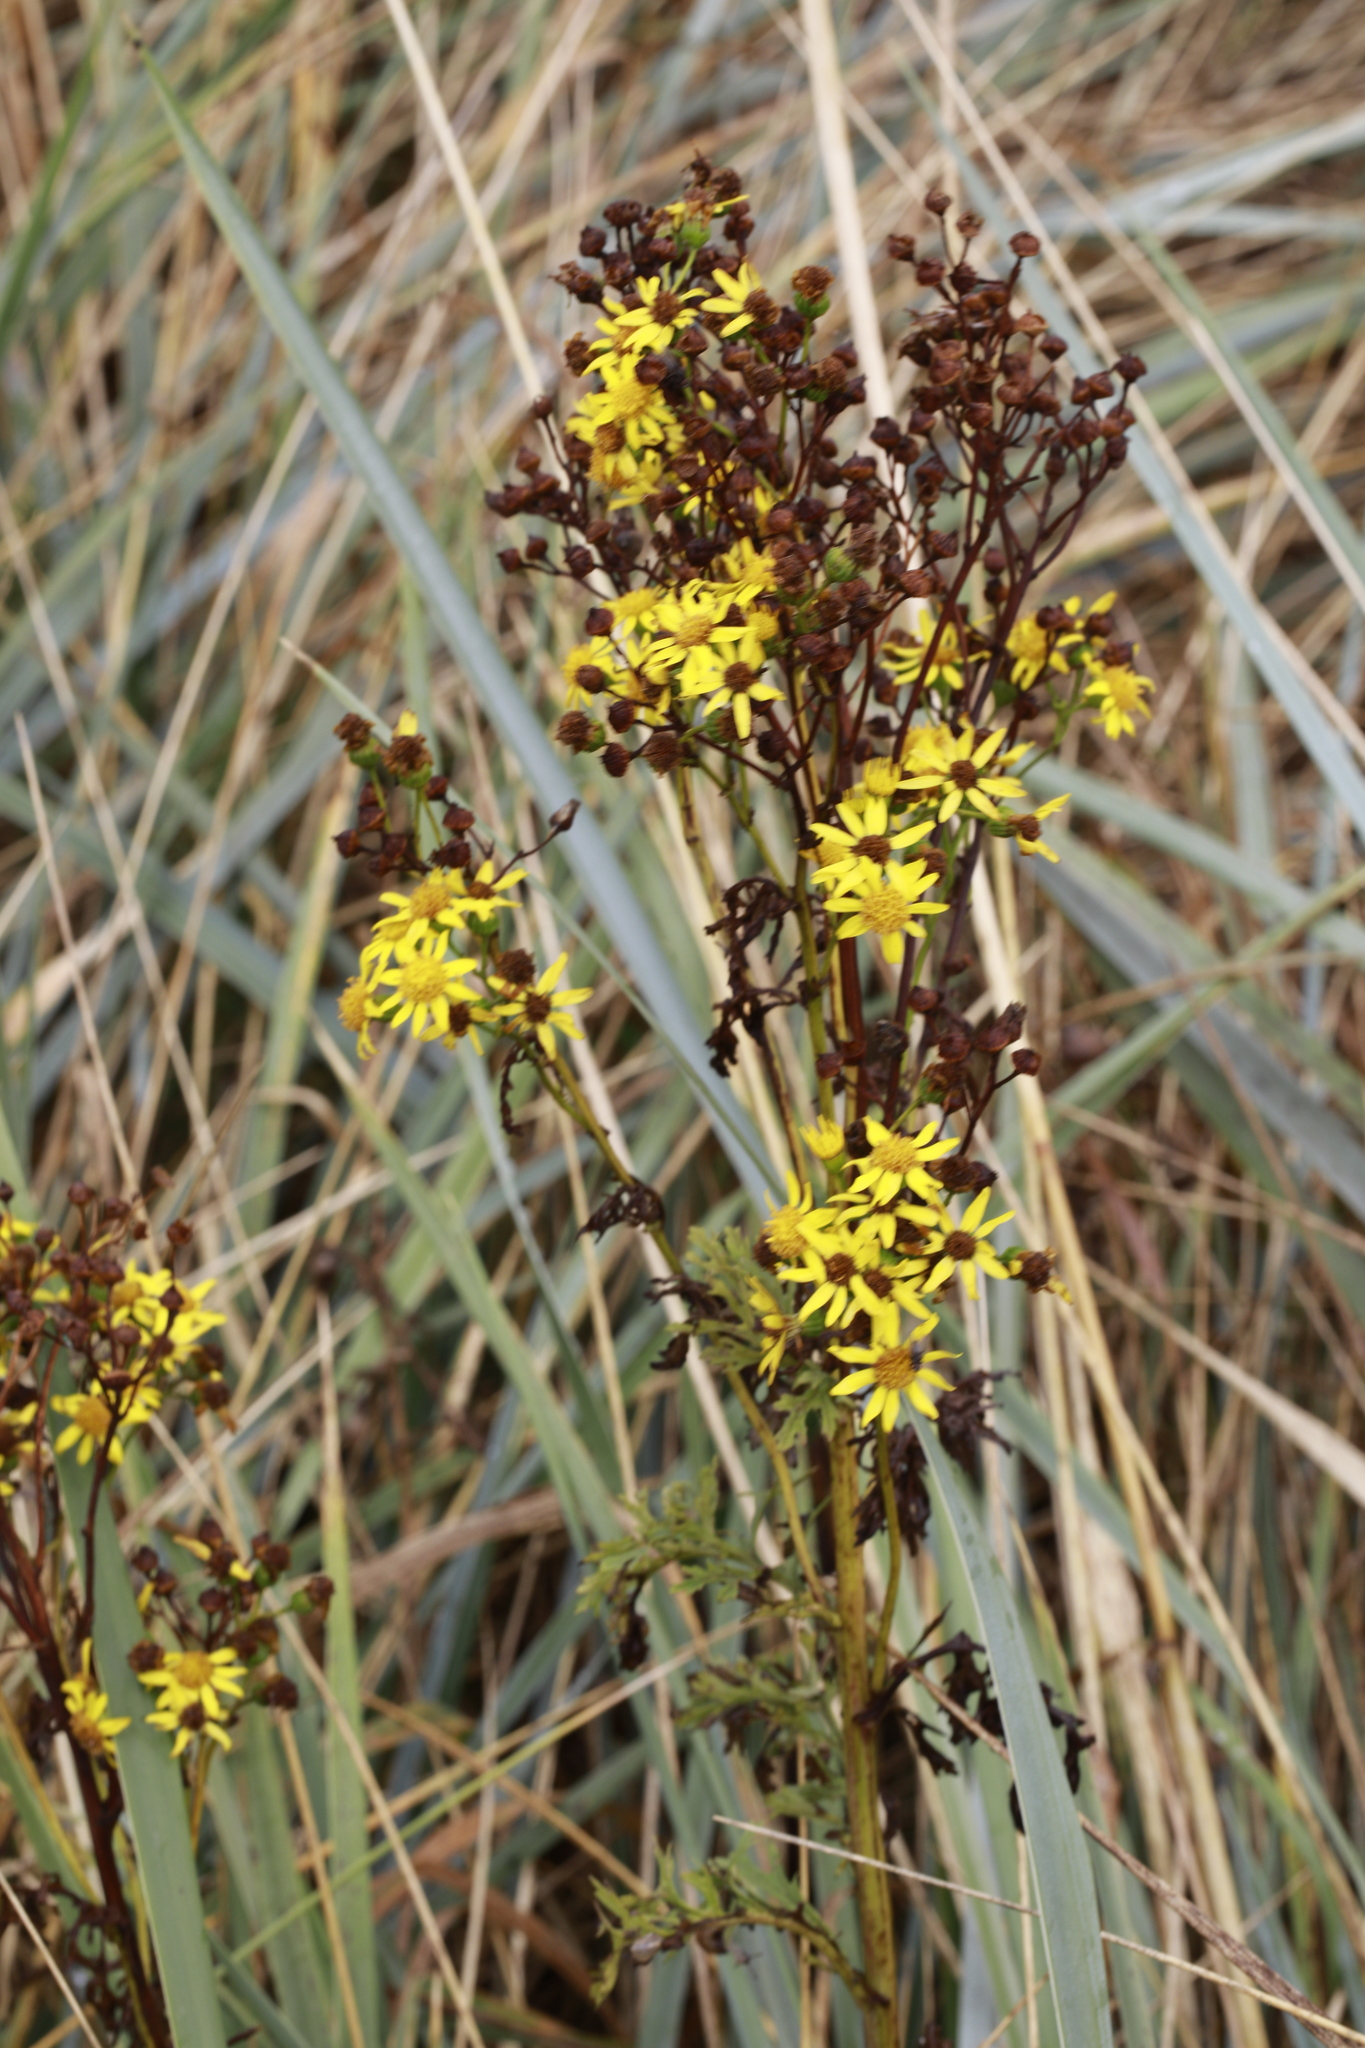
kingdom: Plantae
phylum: Tracheophyta
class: Magnoliopsida
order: Asterales
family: Asteraceae
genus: Jacobaea
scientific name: Jacobaea vulgaris
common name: Stinking willie
